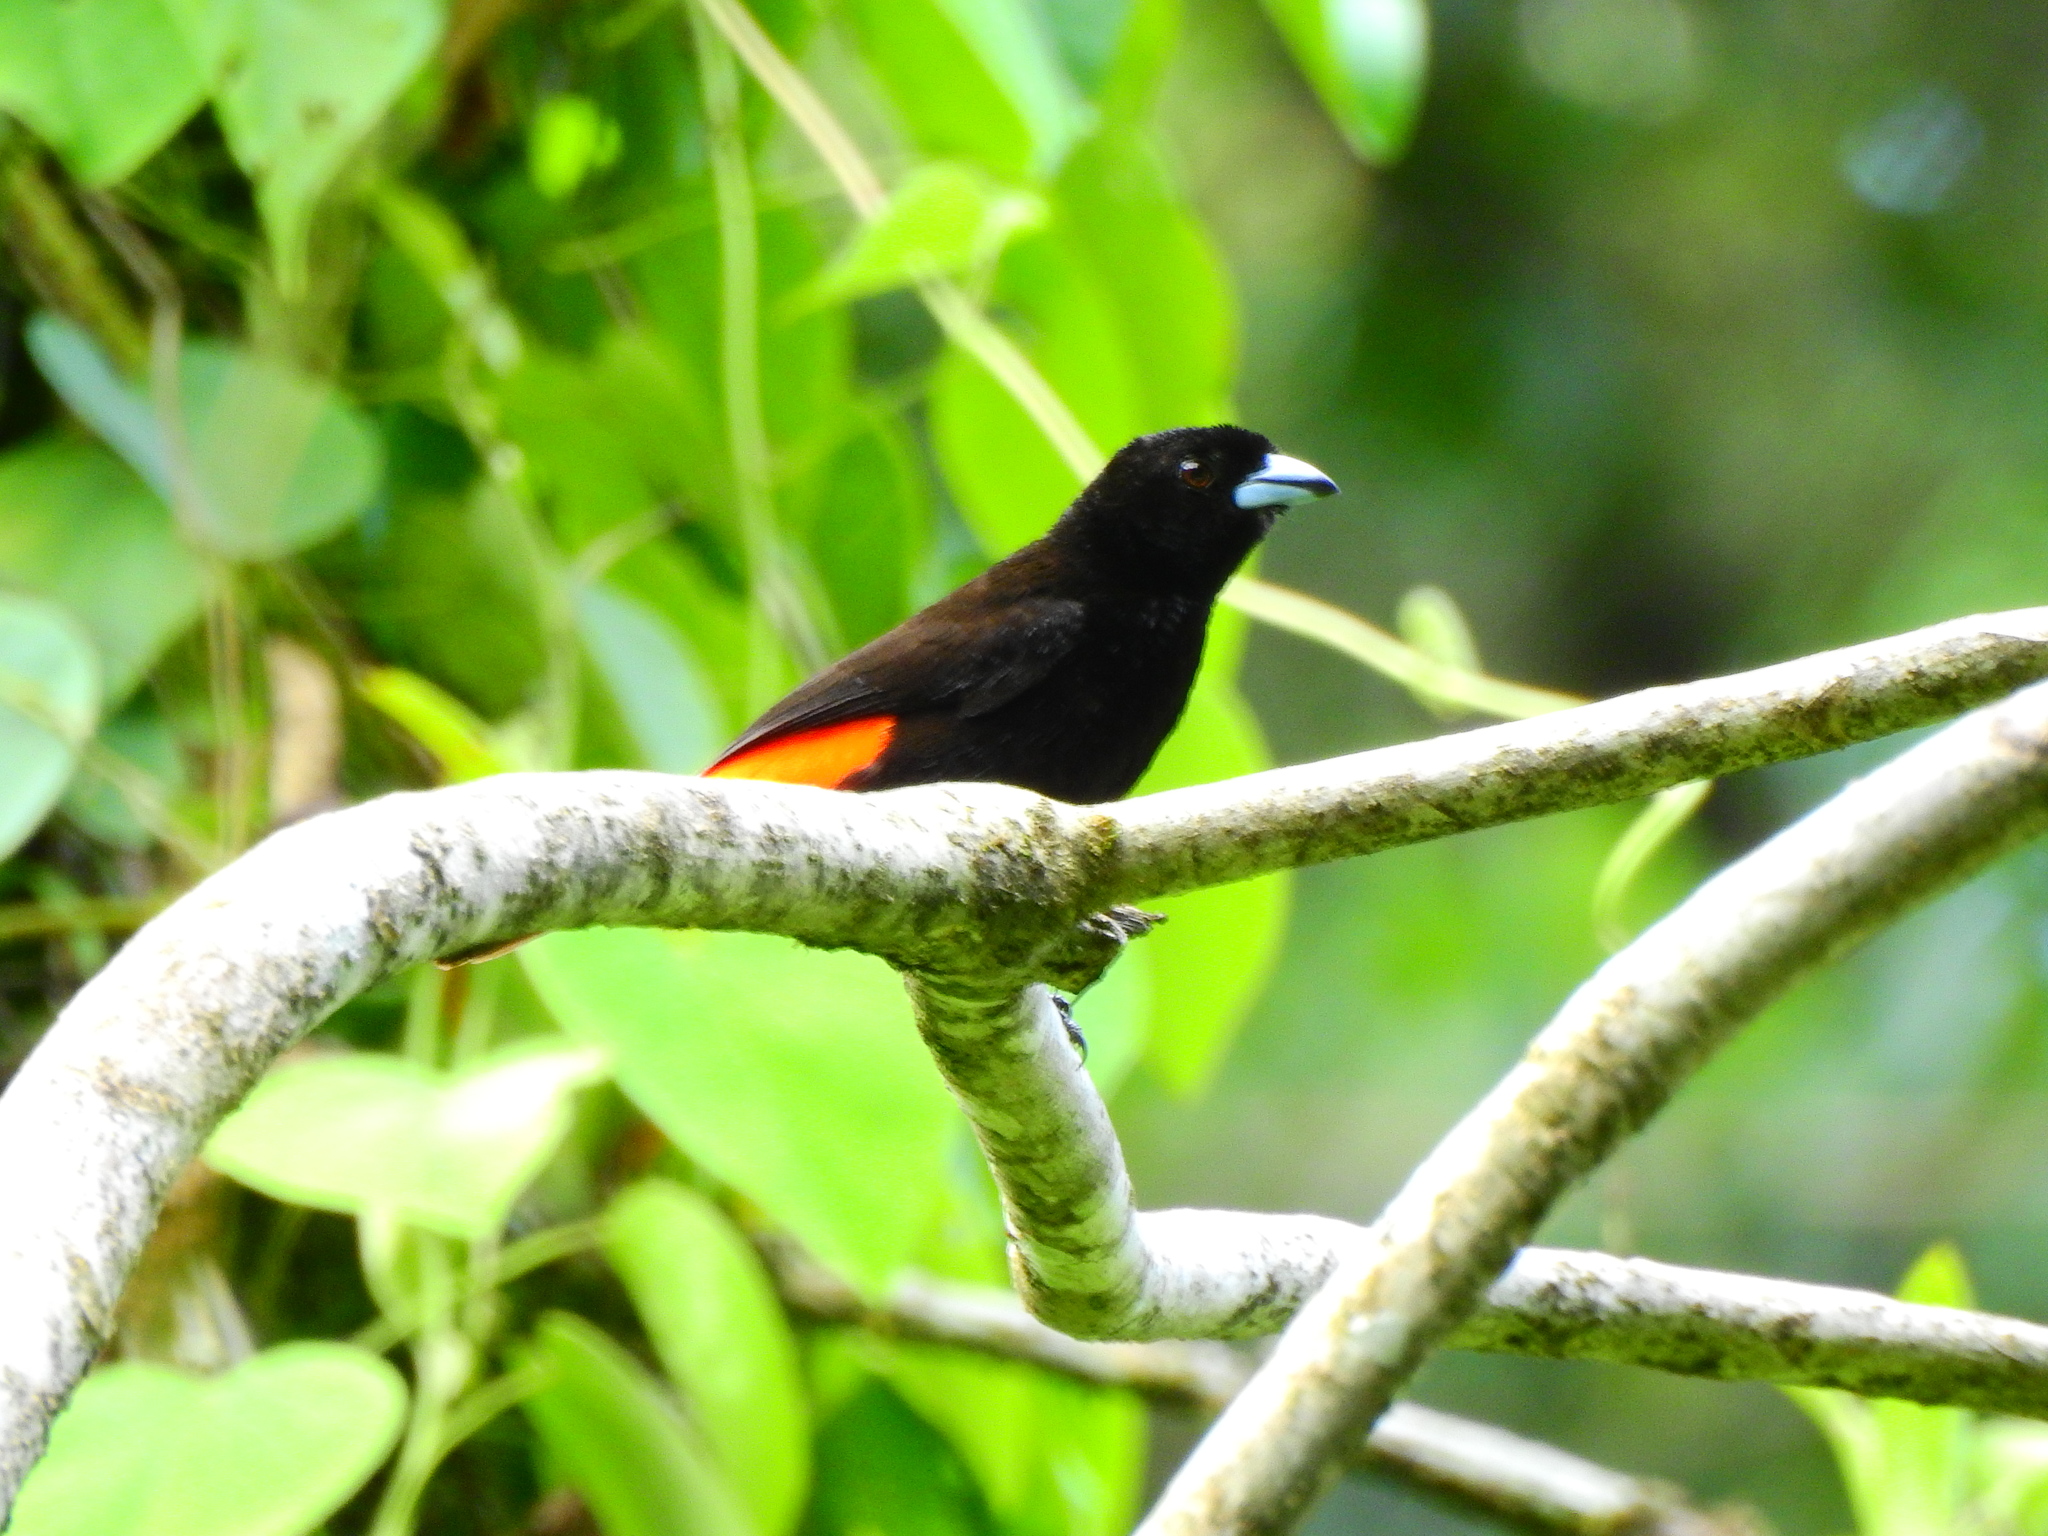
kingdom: Animalia
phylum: Chordata
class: Aves
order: Passeriformes
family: Thraupidae
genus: Ramphocelus
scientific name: Ramphocelus passerinii
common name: Passerini's tanager
